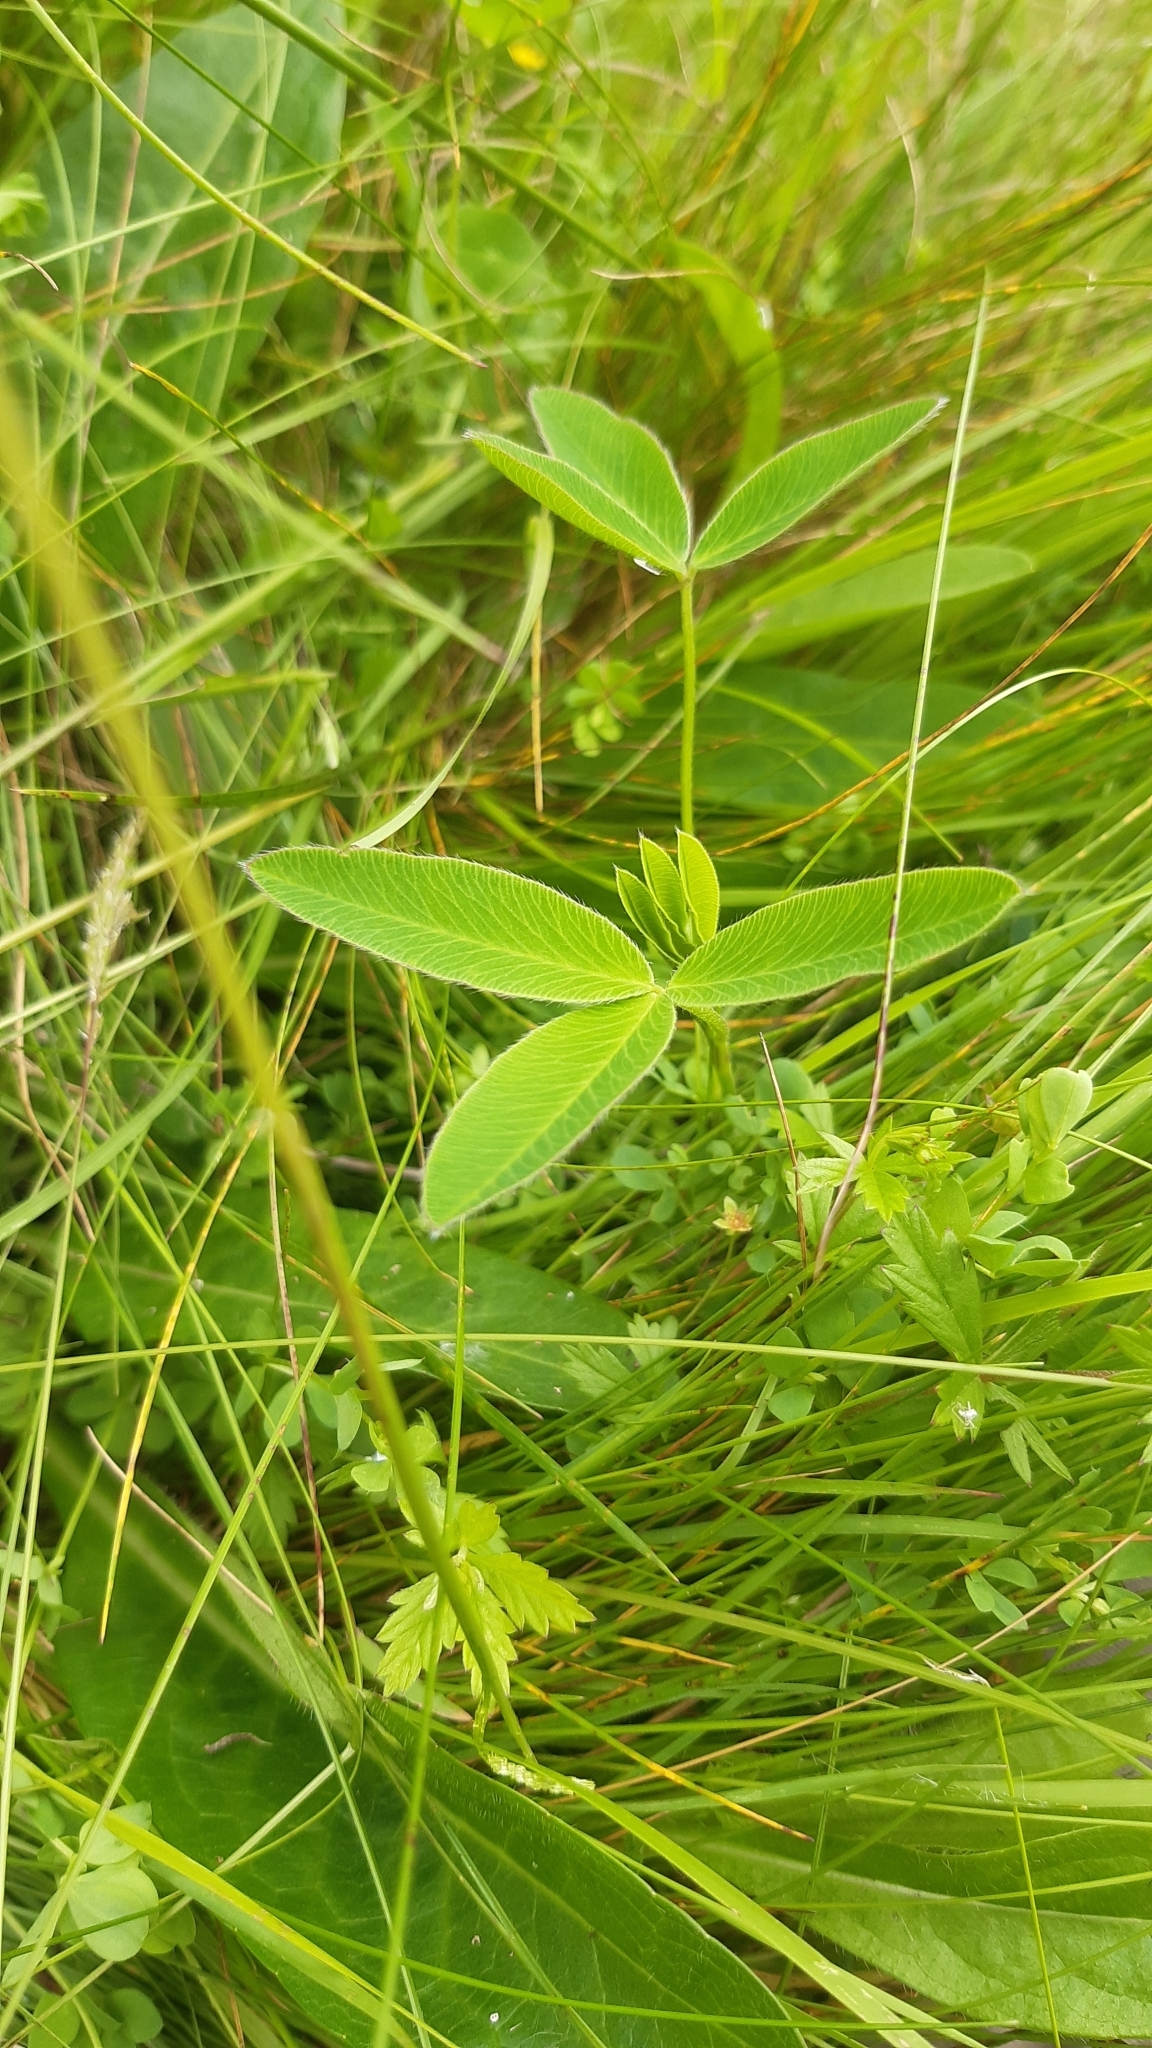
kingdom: Plantae
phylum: Tracheophyta
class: Magnoliopsida
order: Fabales
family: Fabaceae
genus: Trifolium
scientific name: Trifolium medium
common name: Zigzag clover
